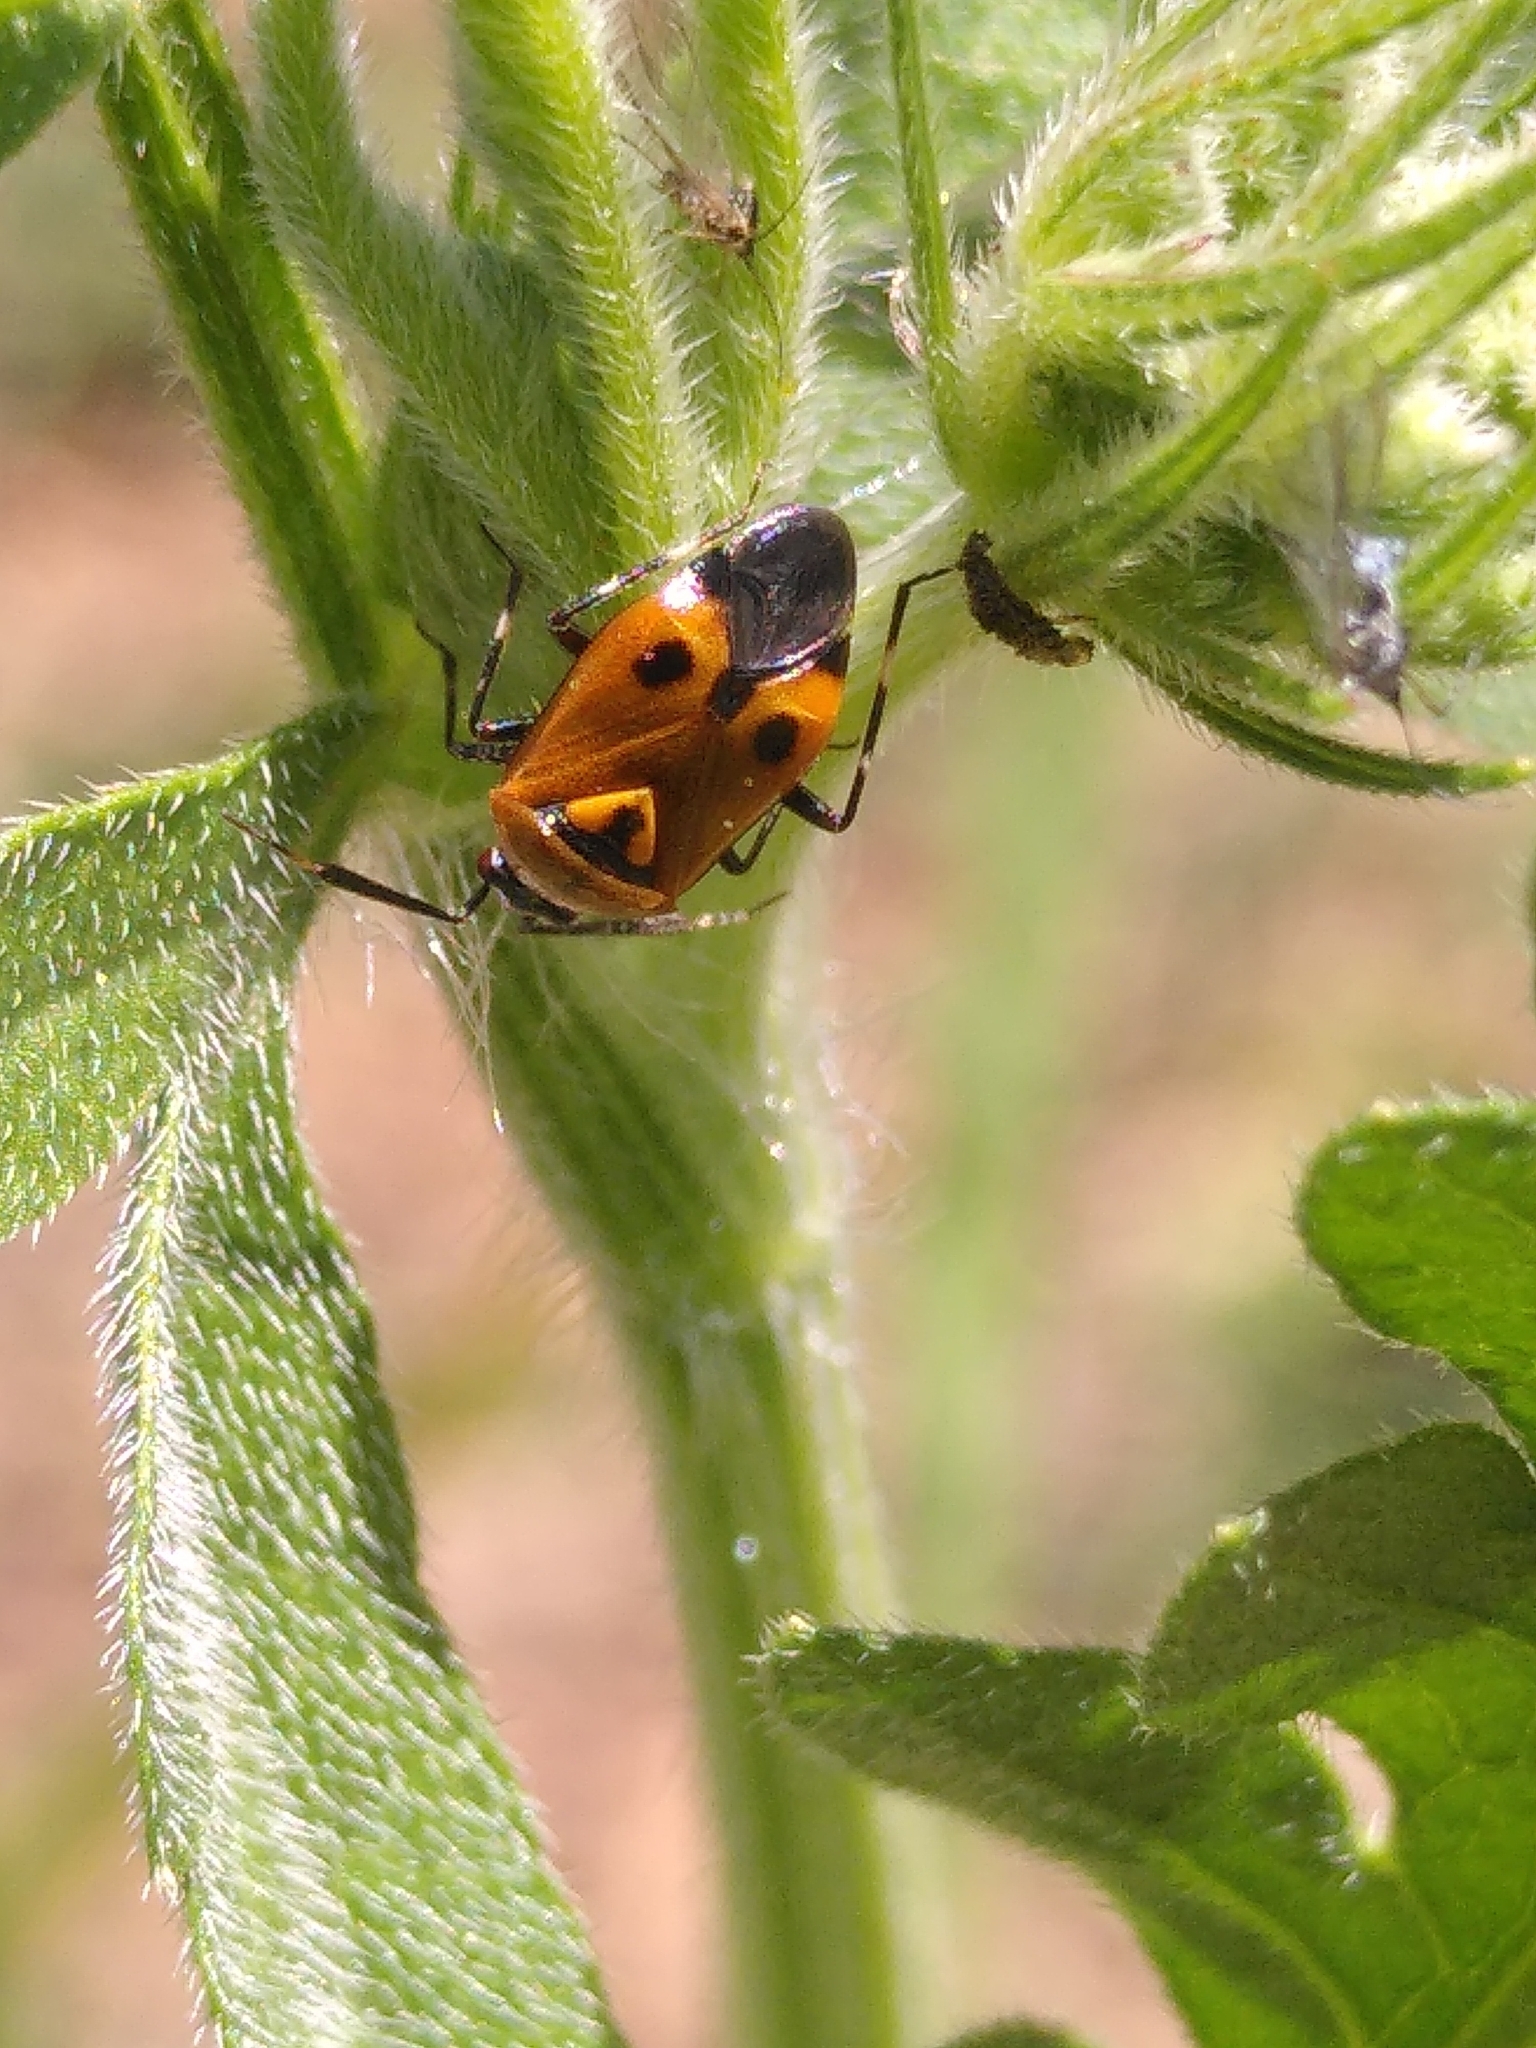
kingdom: Animalia
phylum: Arthropoda
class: Insecta
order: Hemiptera
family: Miridae
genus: Deraeocoris
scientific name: Deraeocoris punctum
